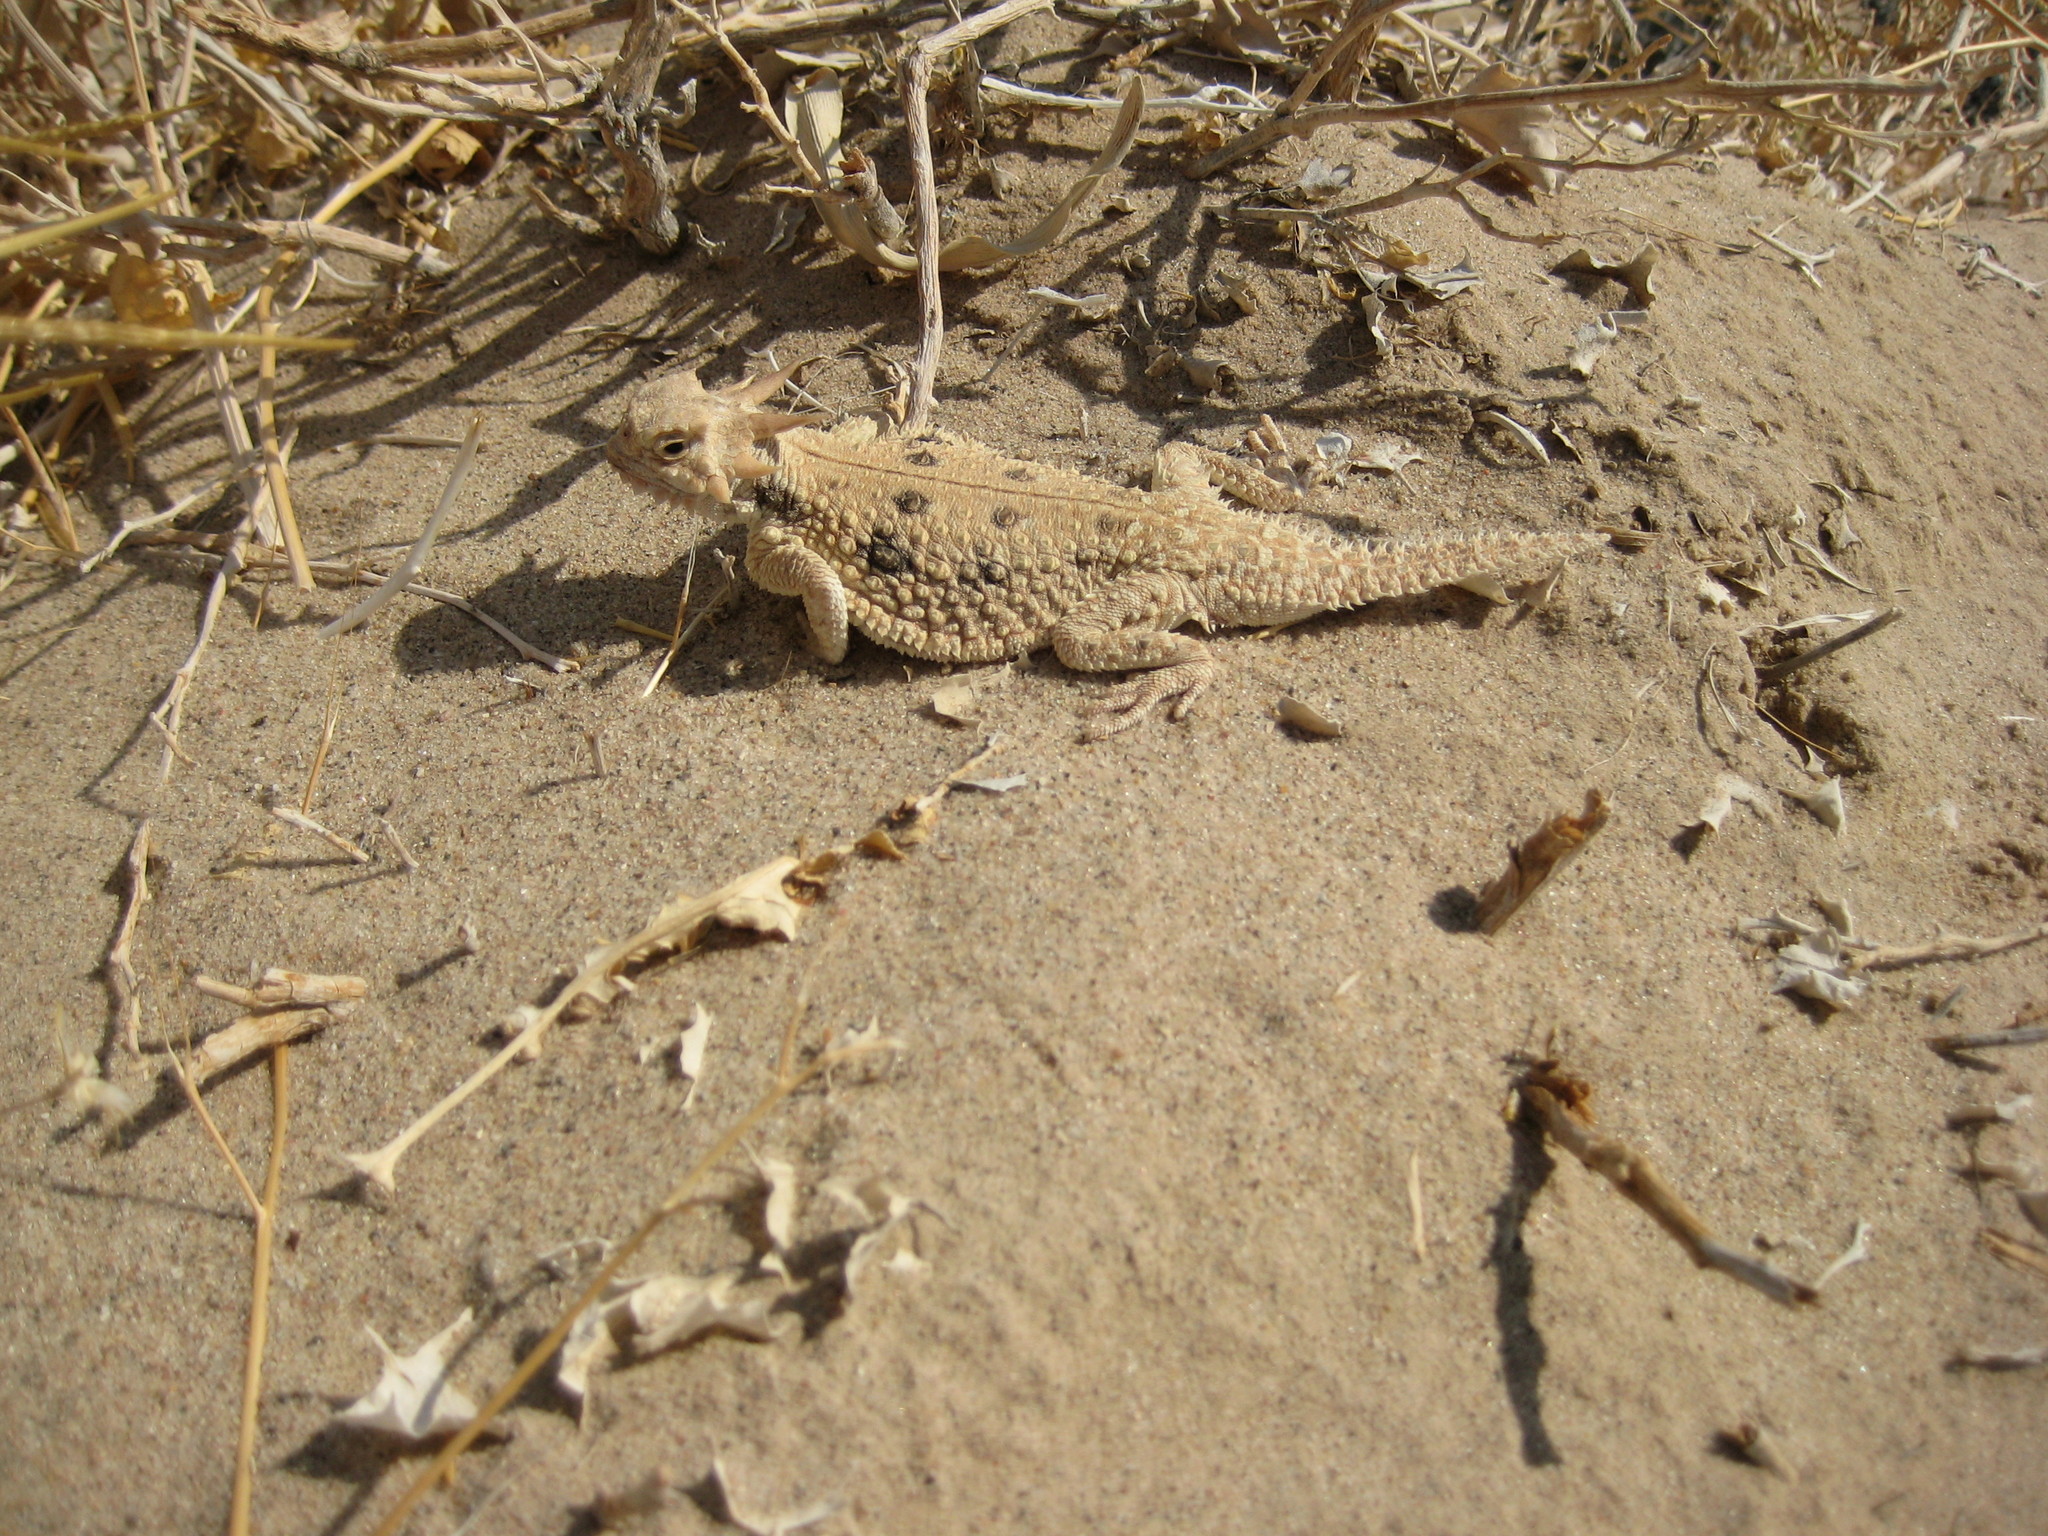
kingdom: Animalia
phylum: Chordata
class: Squamata
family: Phrynosomatidae
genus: Phrynosoma
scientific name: Phrynosoma mcallii
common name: Flat-tailed horned lizard
